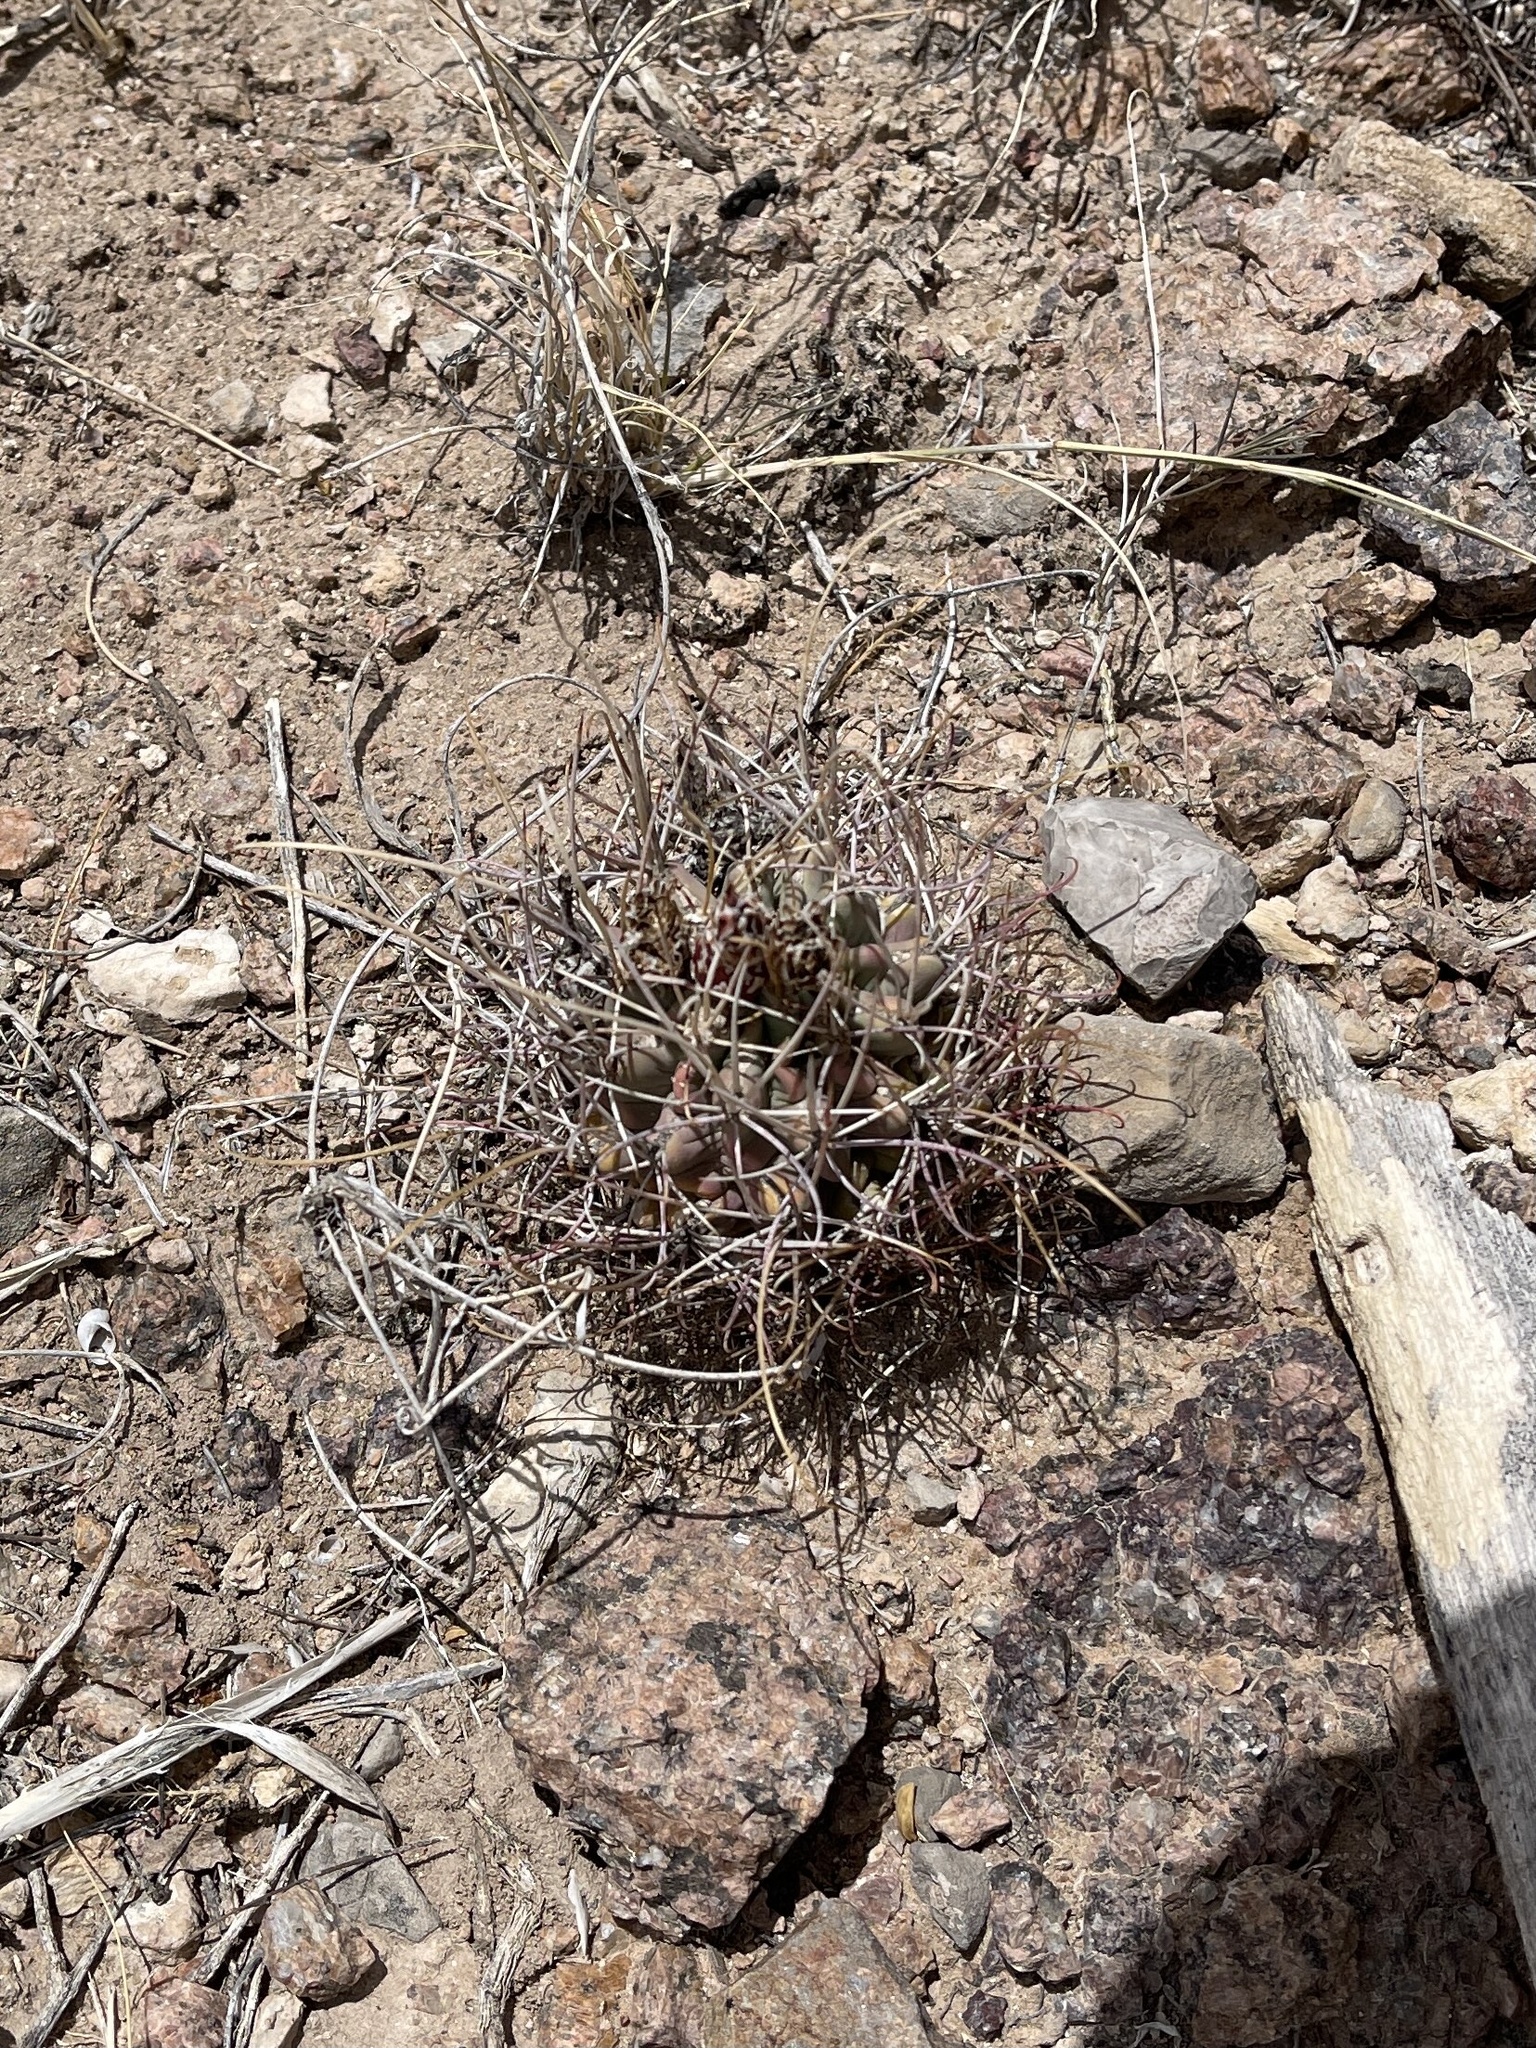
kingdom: Plantae
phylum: Tracheophyta
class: Magnoliopsida
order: Caryophyllales
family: Cactaceae
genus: Ferocactus
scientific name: Ferocactus uncinatus
